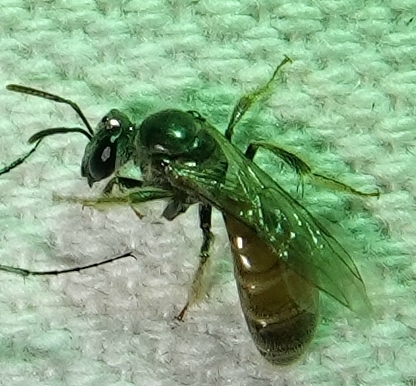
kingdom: Animalia
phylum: Arthropoda
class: Insecta
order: Hymenoptera
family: Halictidae
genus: Lasioglossum
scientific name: Lasioglossum texanum
